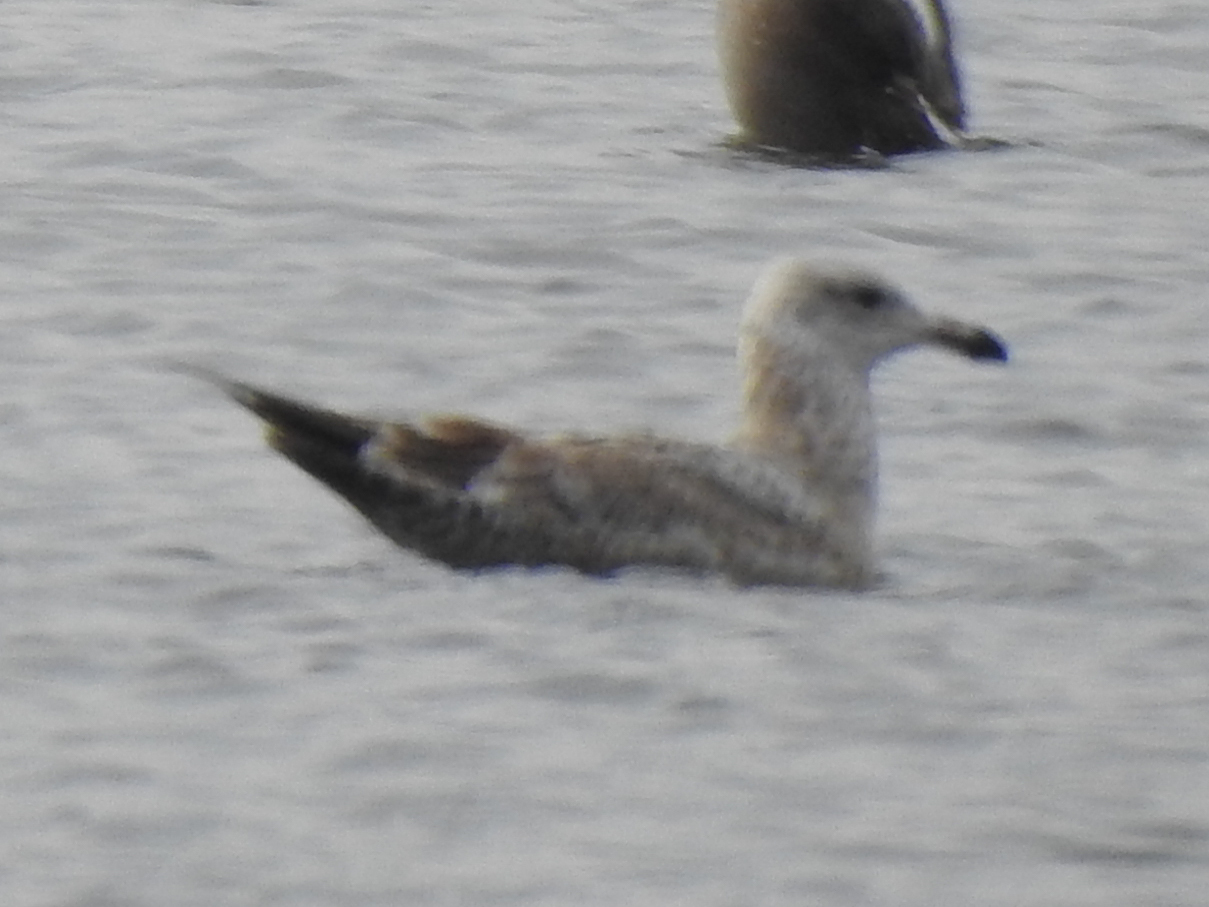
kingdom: Animalia
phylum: Chordata
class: Aves
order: Charadriiformes
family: Laridae
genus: Larus
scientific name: Larus argentatus
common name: Herring gull
